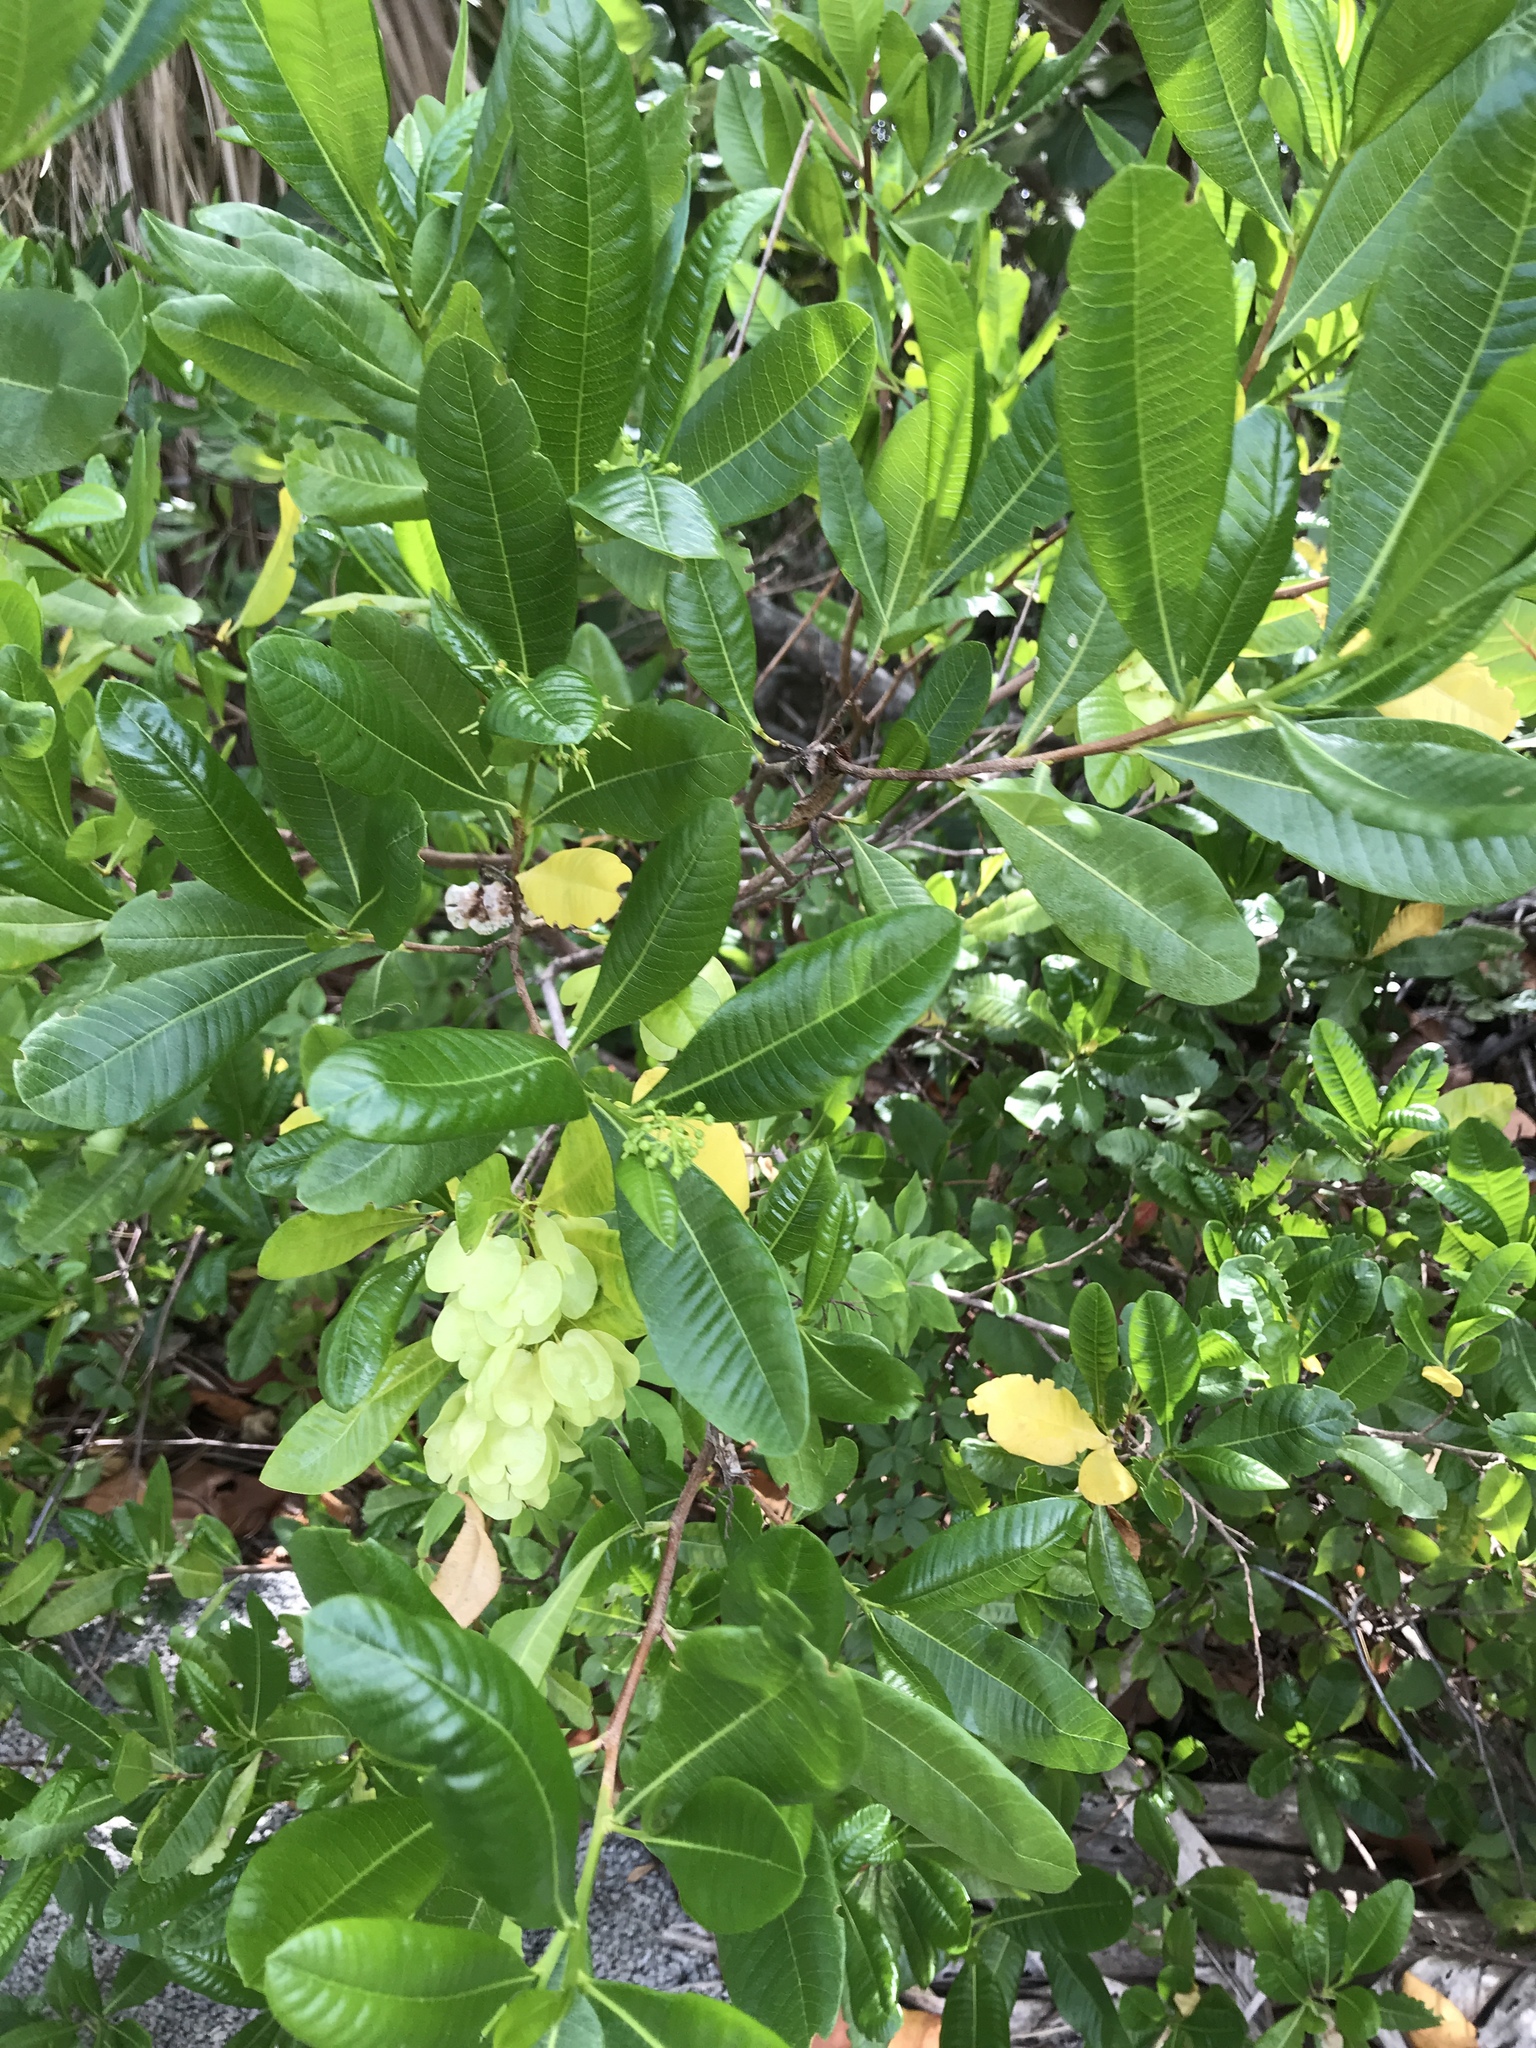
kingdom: Plantae
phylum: Tracheophyta
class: Magnoliopsida
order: Sapindales
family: Sapindaceae
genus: Dodonaea
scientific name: Dodonaea viscosa
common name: Hopbush
